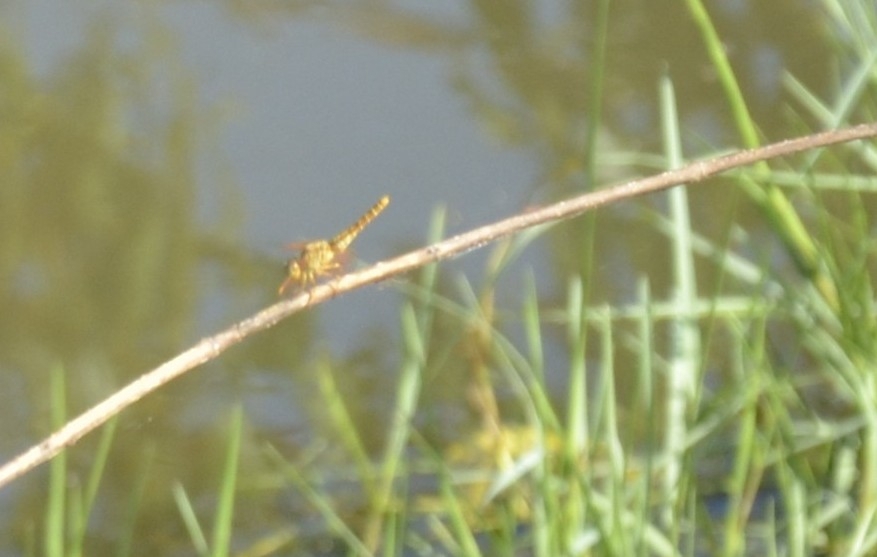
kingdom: Animalia
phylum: Arthropoda
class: Insecta
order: Odonata
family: Libellulidae
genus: Brachythemis
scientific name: Brachythemis contaminata
